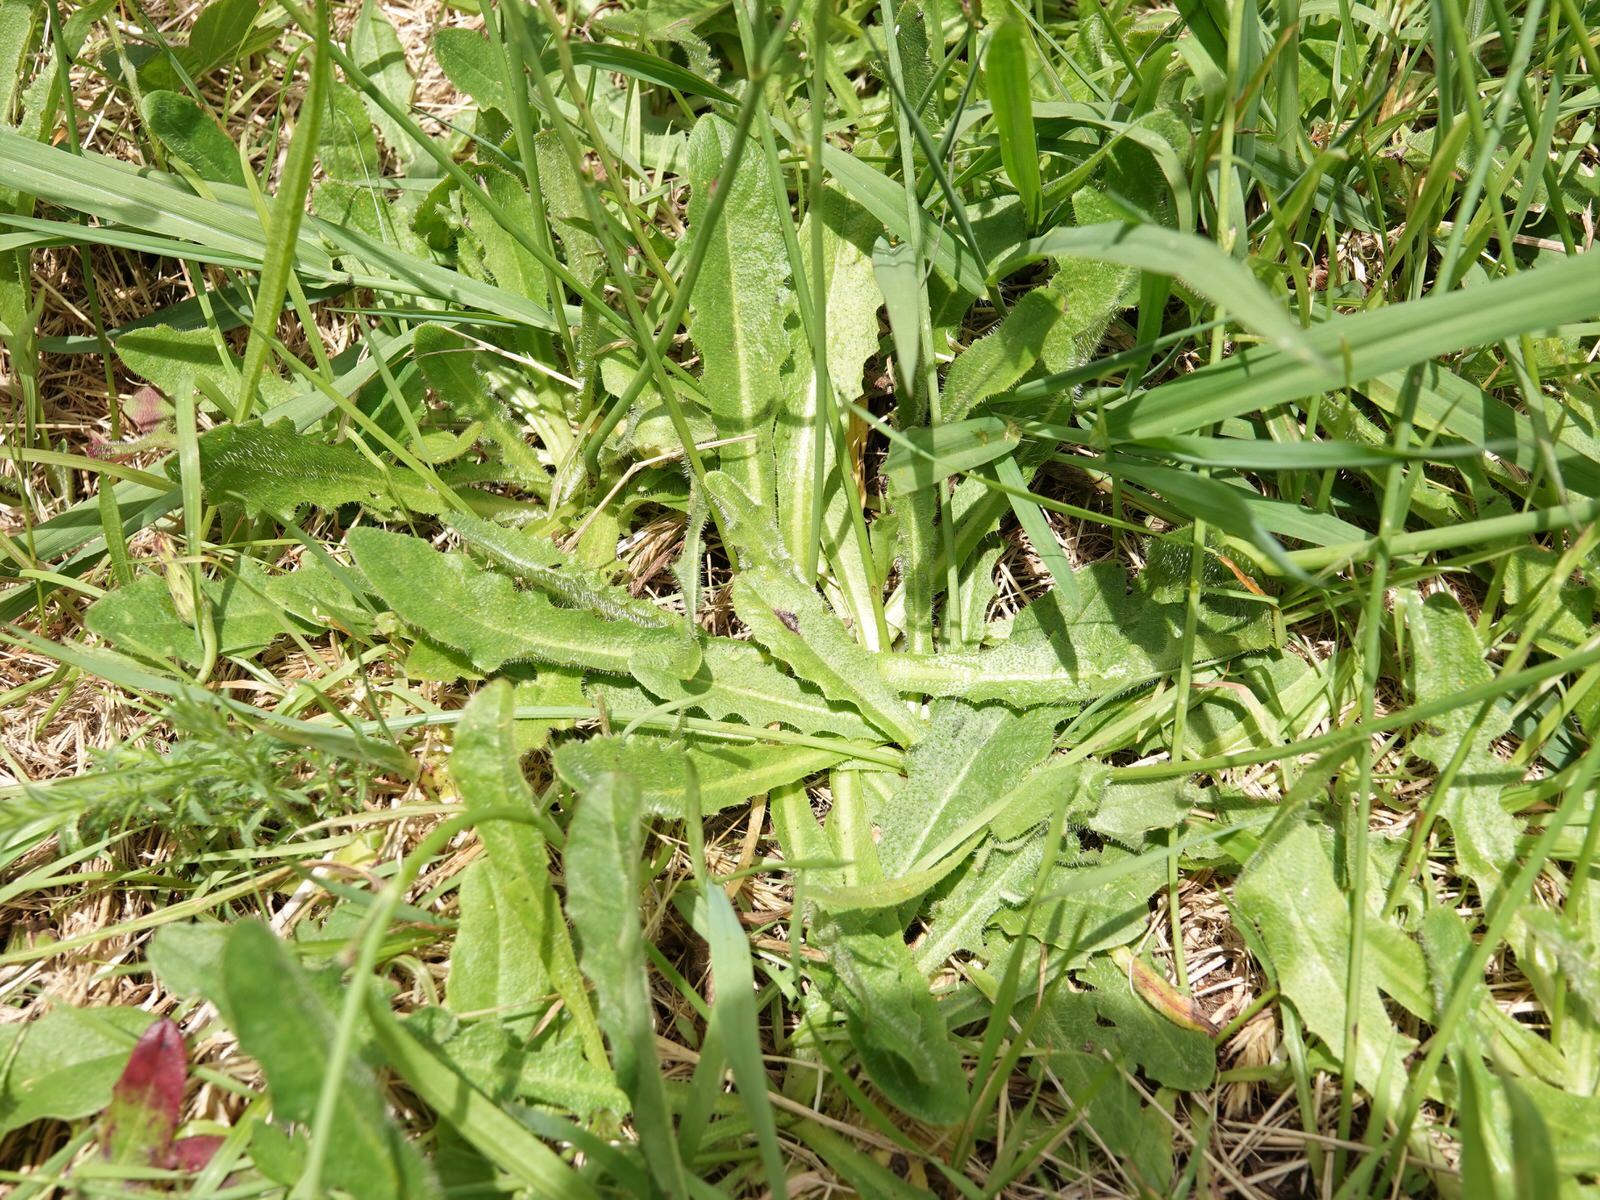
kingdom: Plantae
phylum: Tracheophyta
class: Magnoliopsida
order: Asterales
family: Asteraceae
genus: Hypochaeris
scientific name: Hypochaeris radicata
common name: Flatweed
